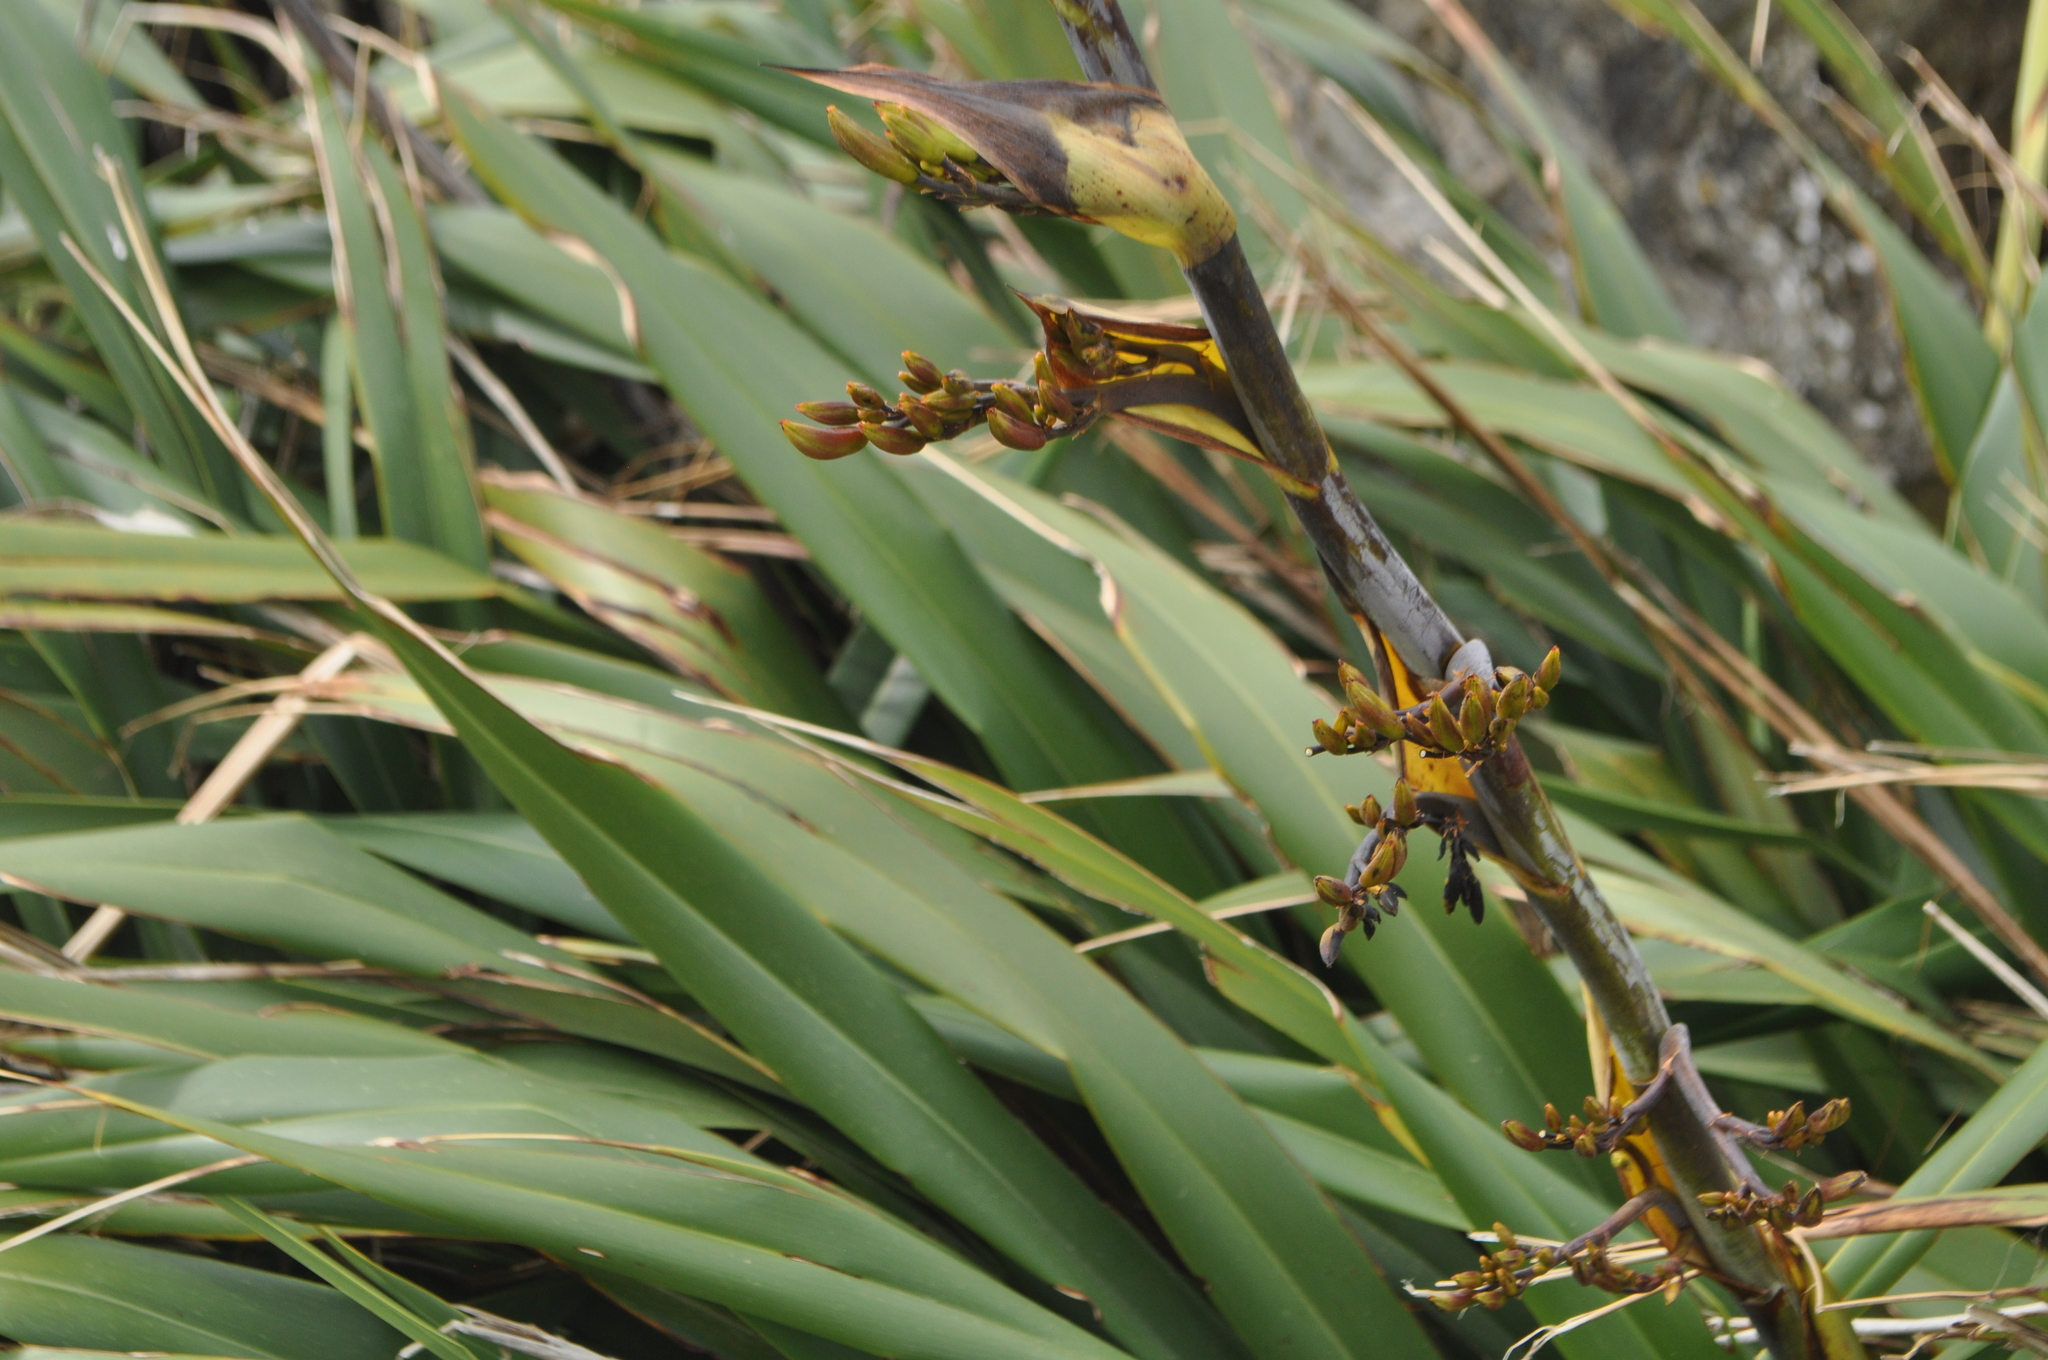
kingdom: Plantae
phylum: Tracheophyta
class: Liliopsida
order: Asparagales
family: Asphodelaceae
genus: Phormium
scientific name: Phormium colensoi
